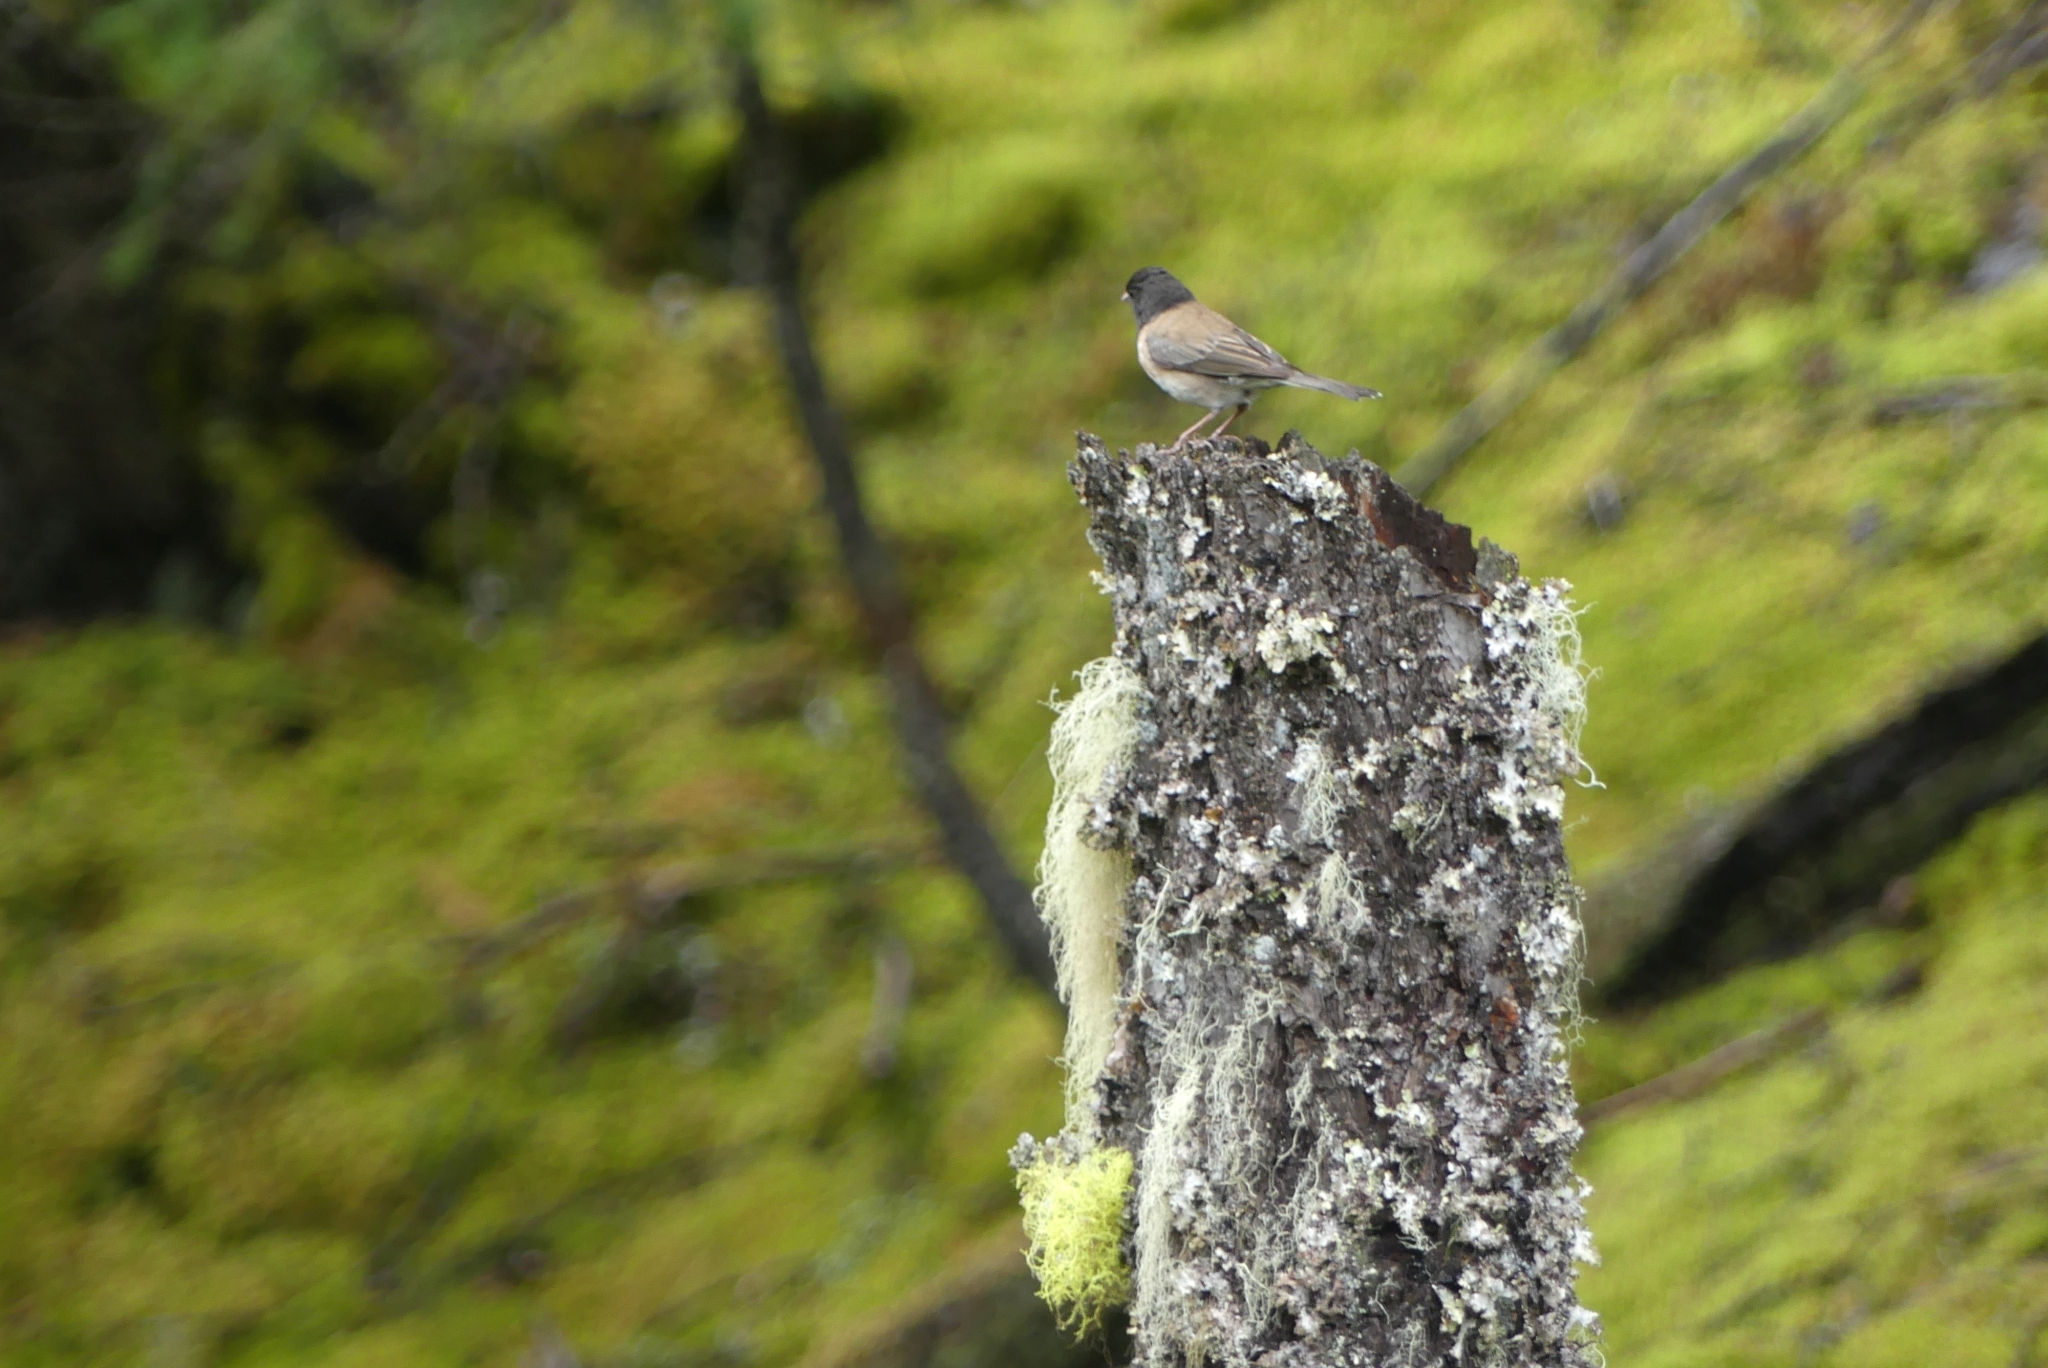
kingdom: Animalia
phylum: Chordata
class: Aves
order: Passeriformes
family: Passerellidae
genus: Junco
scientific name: Junco hyemalis
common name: Dark-eyed junco
